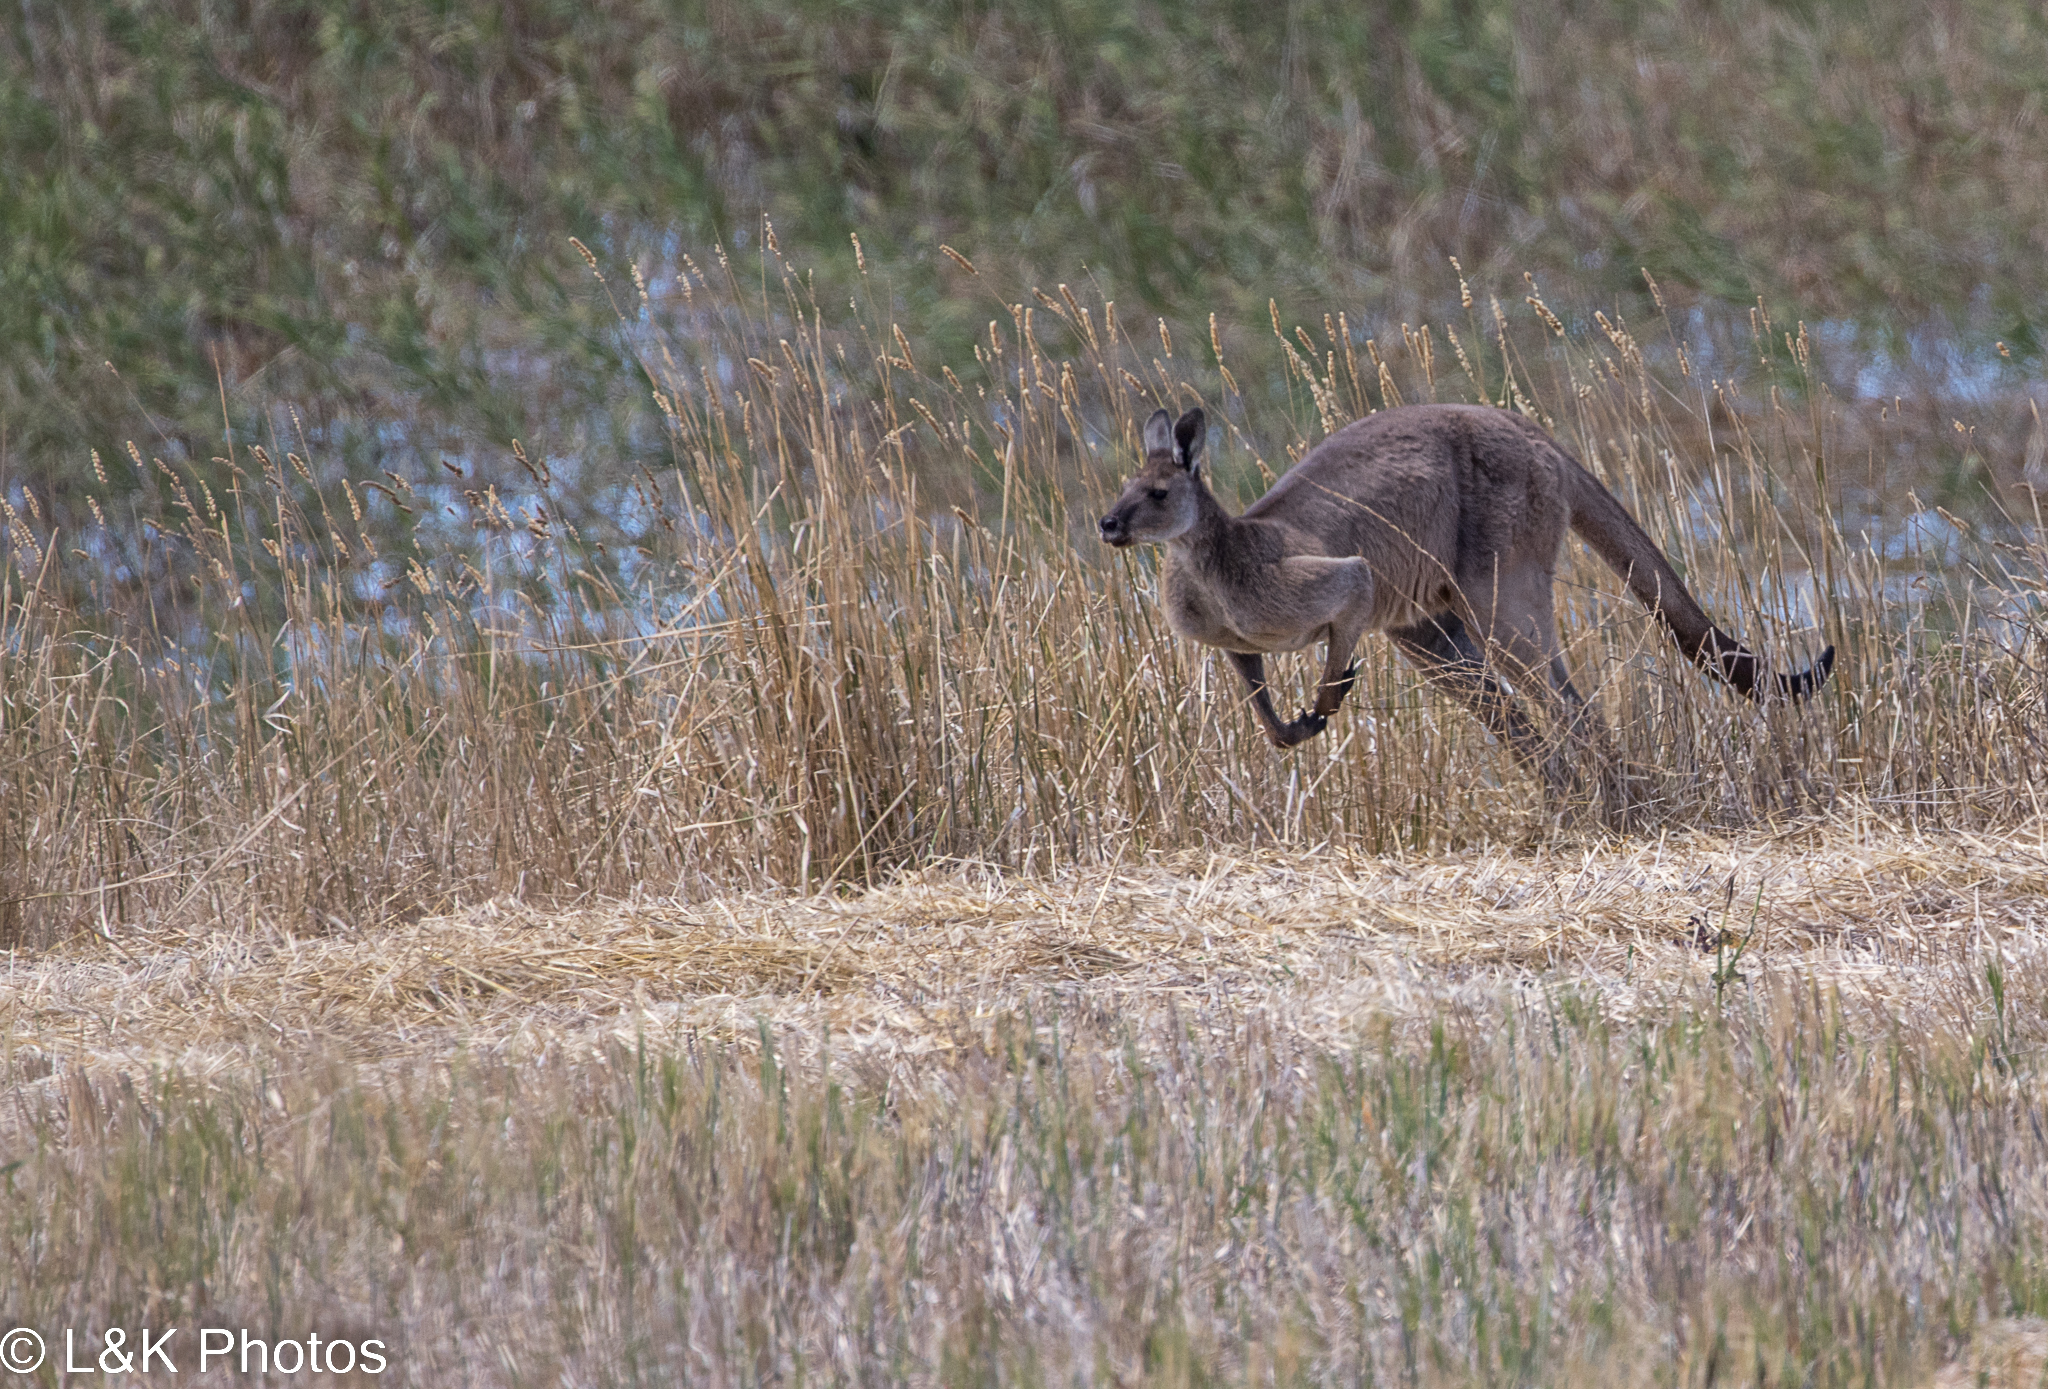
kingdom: Animalia
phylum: Chordata
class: Mammalia
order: Diprotodontia
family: Macropodidae
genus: Macropus
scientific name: Macropus fuliginosus
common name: Western grey kangaroo
